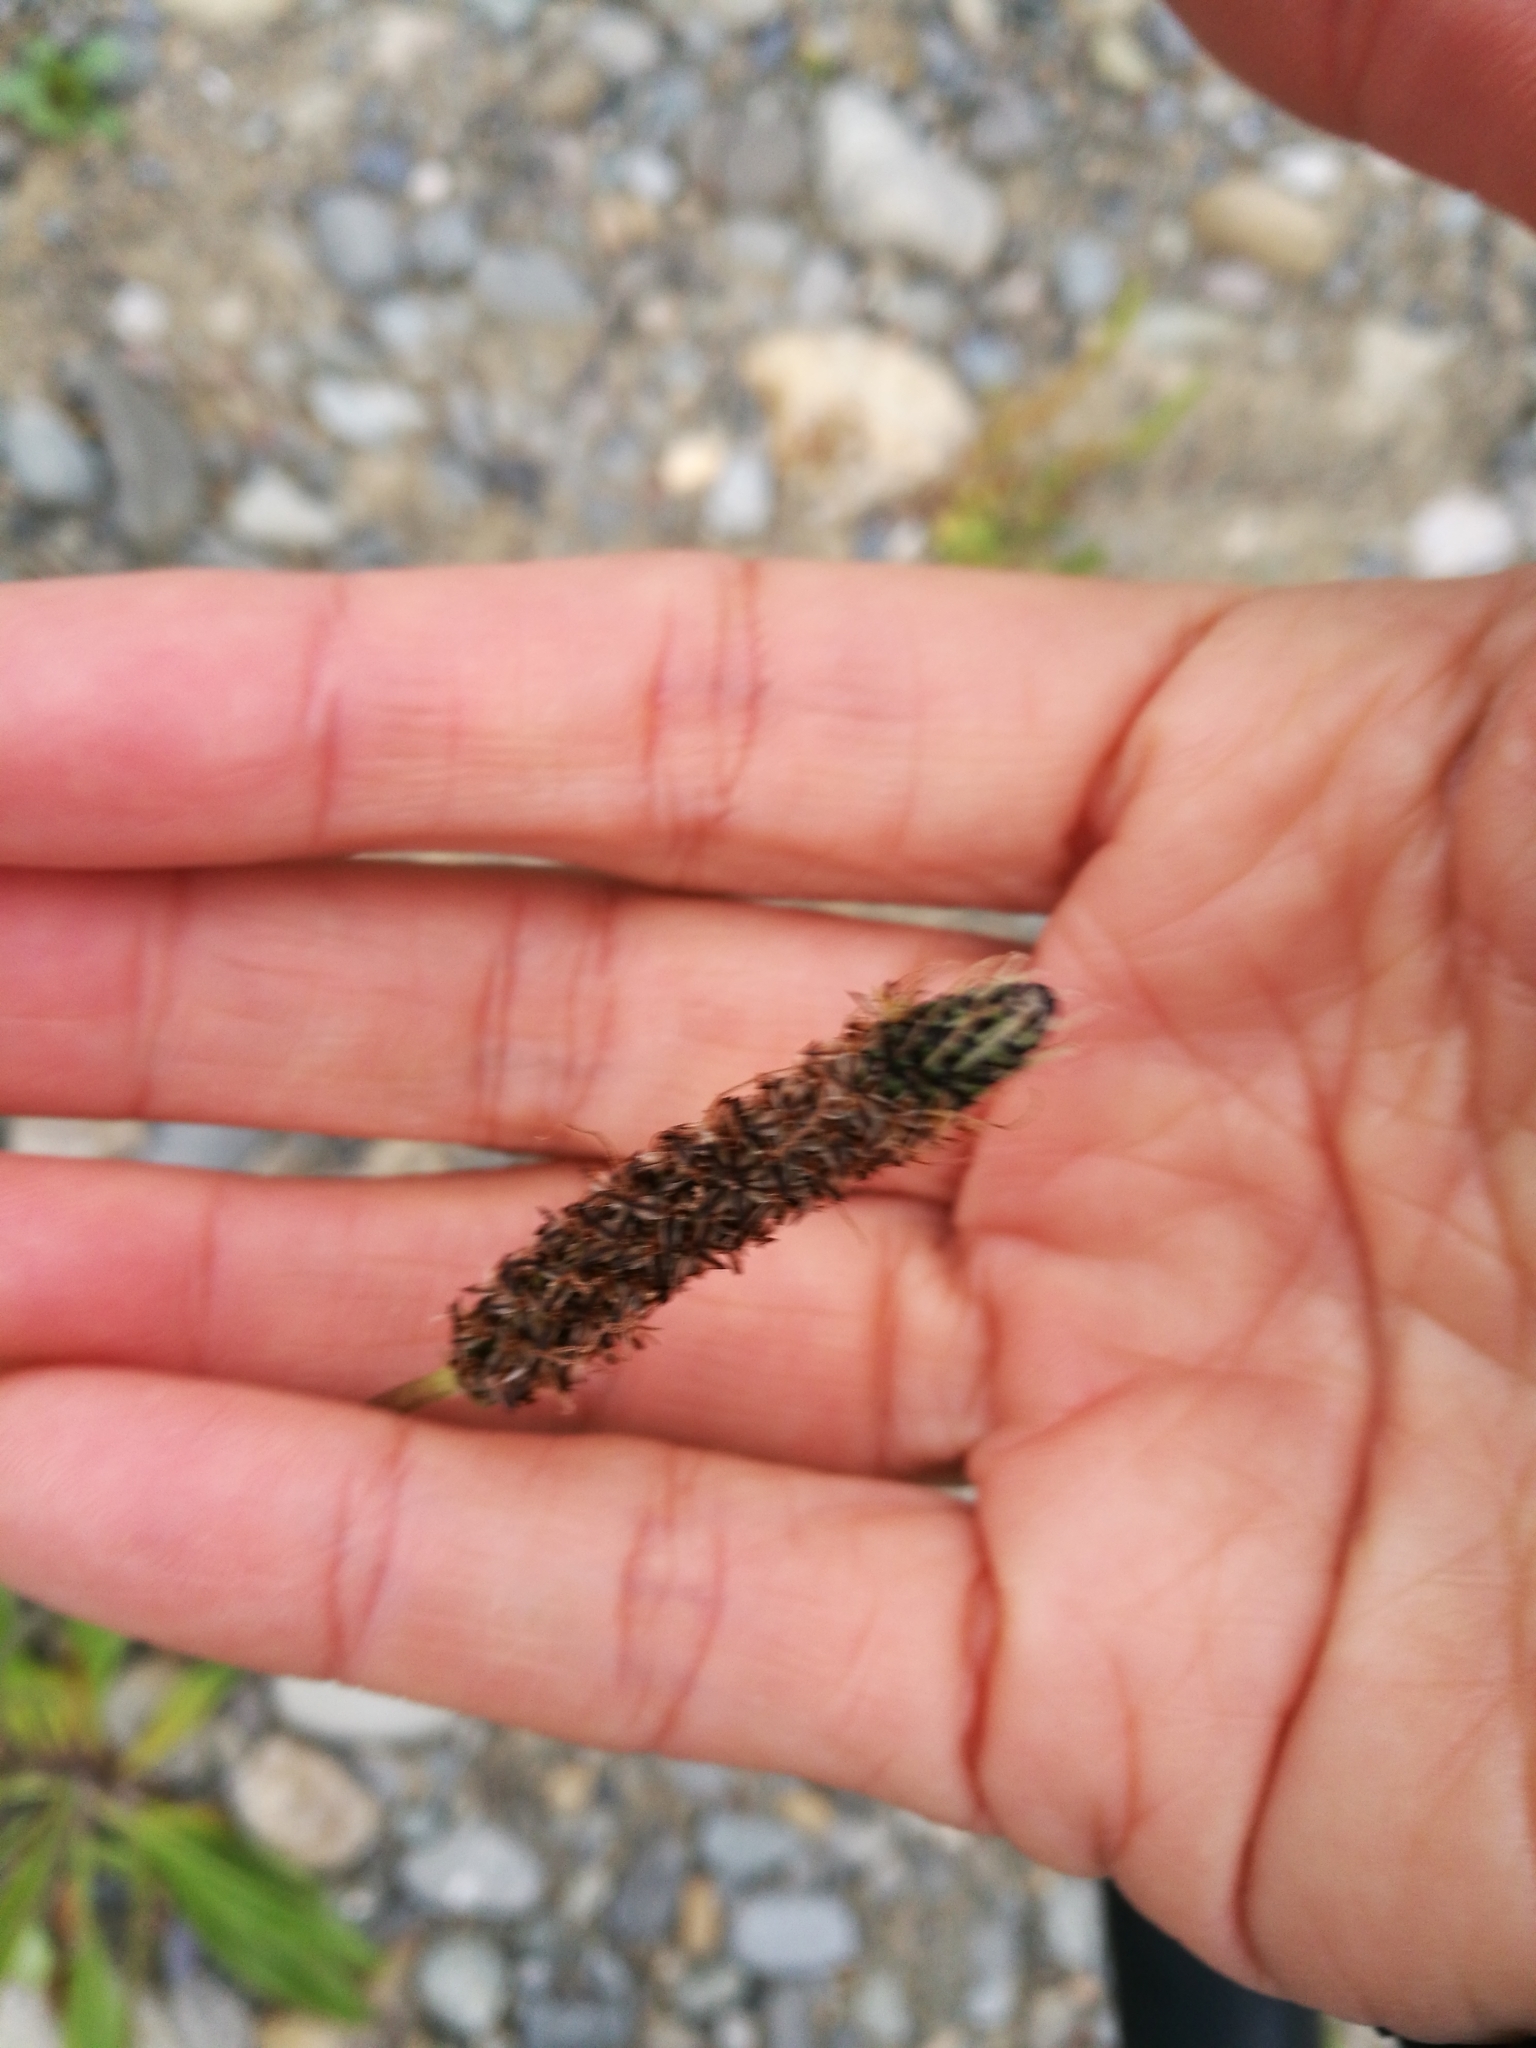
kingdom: Plantae
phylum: Tracheophyta
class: Magnoliopsida
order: Lamiales
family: Plantaginaceae
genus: Plantago
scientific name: Plantago lanceolata
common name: Ribwort plantain
